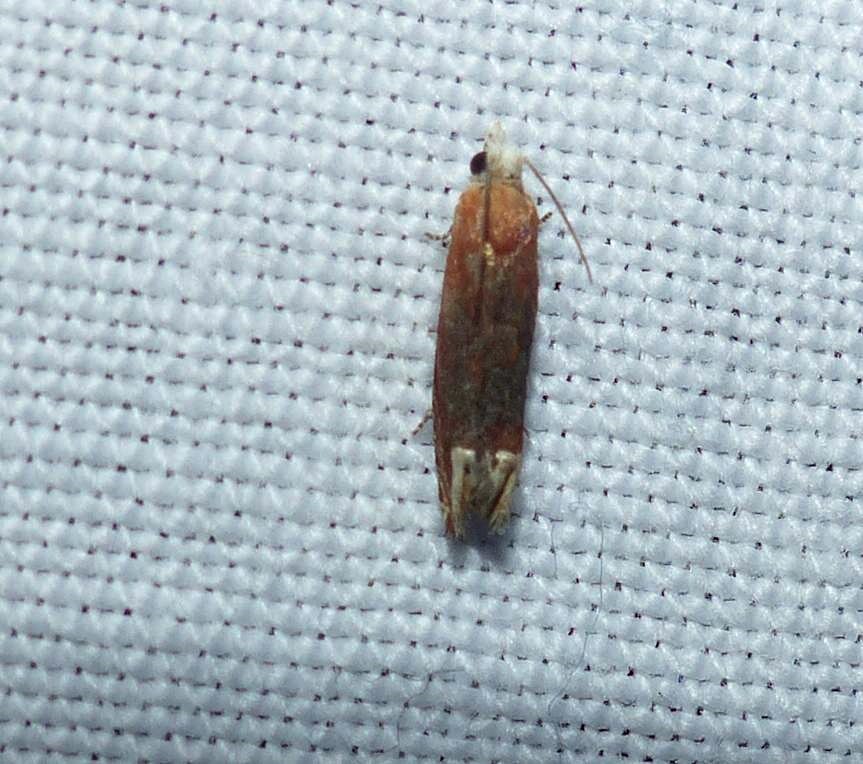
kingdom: Animalia
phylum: Arthropoda
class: Insecta
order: Lepidoptera
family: Tortricidae
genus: Eucosma
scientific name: Eucosma raracana
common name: Reddish eucosma moth
